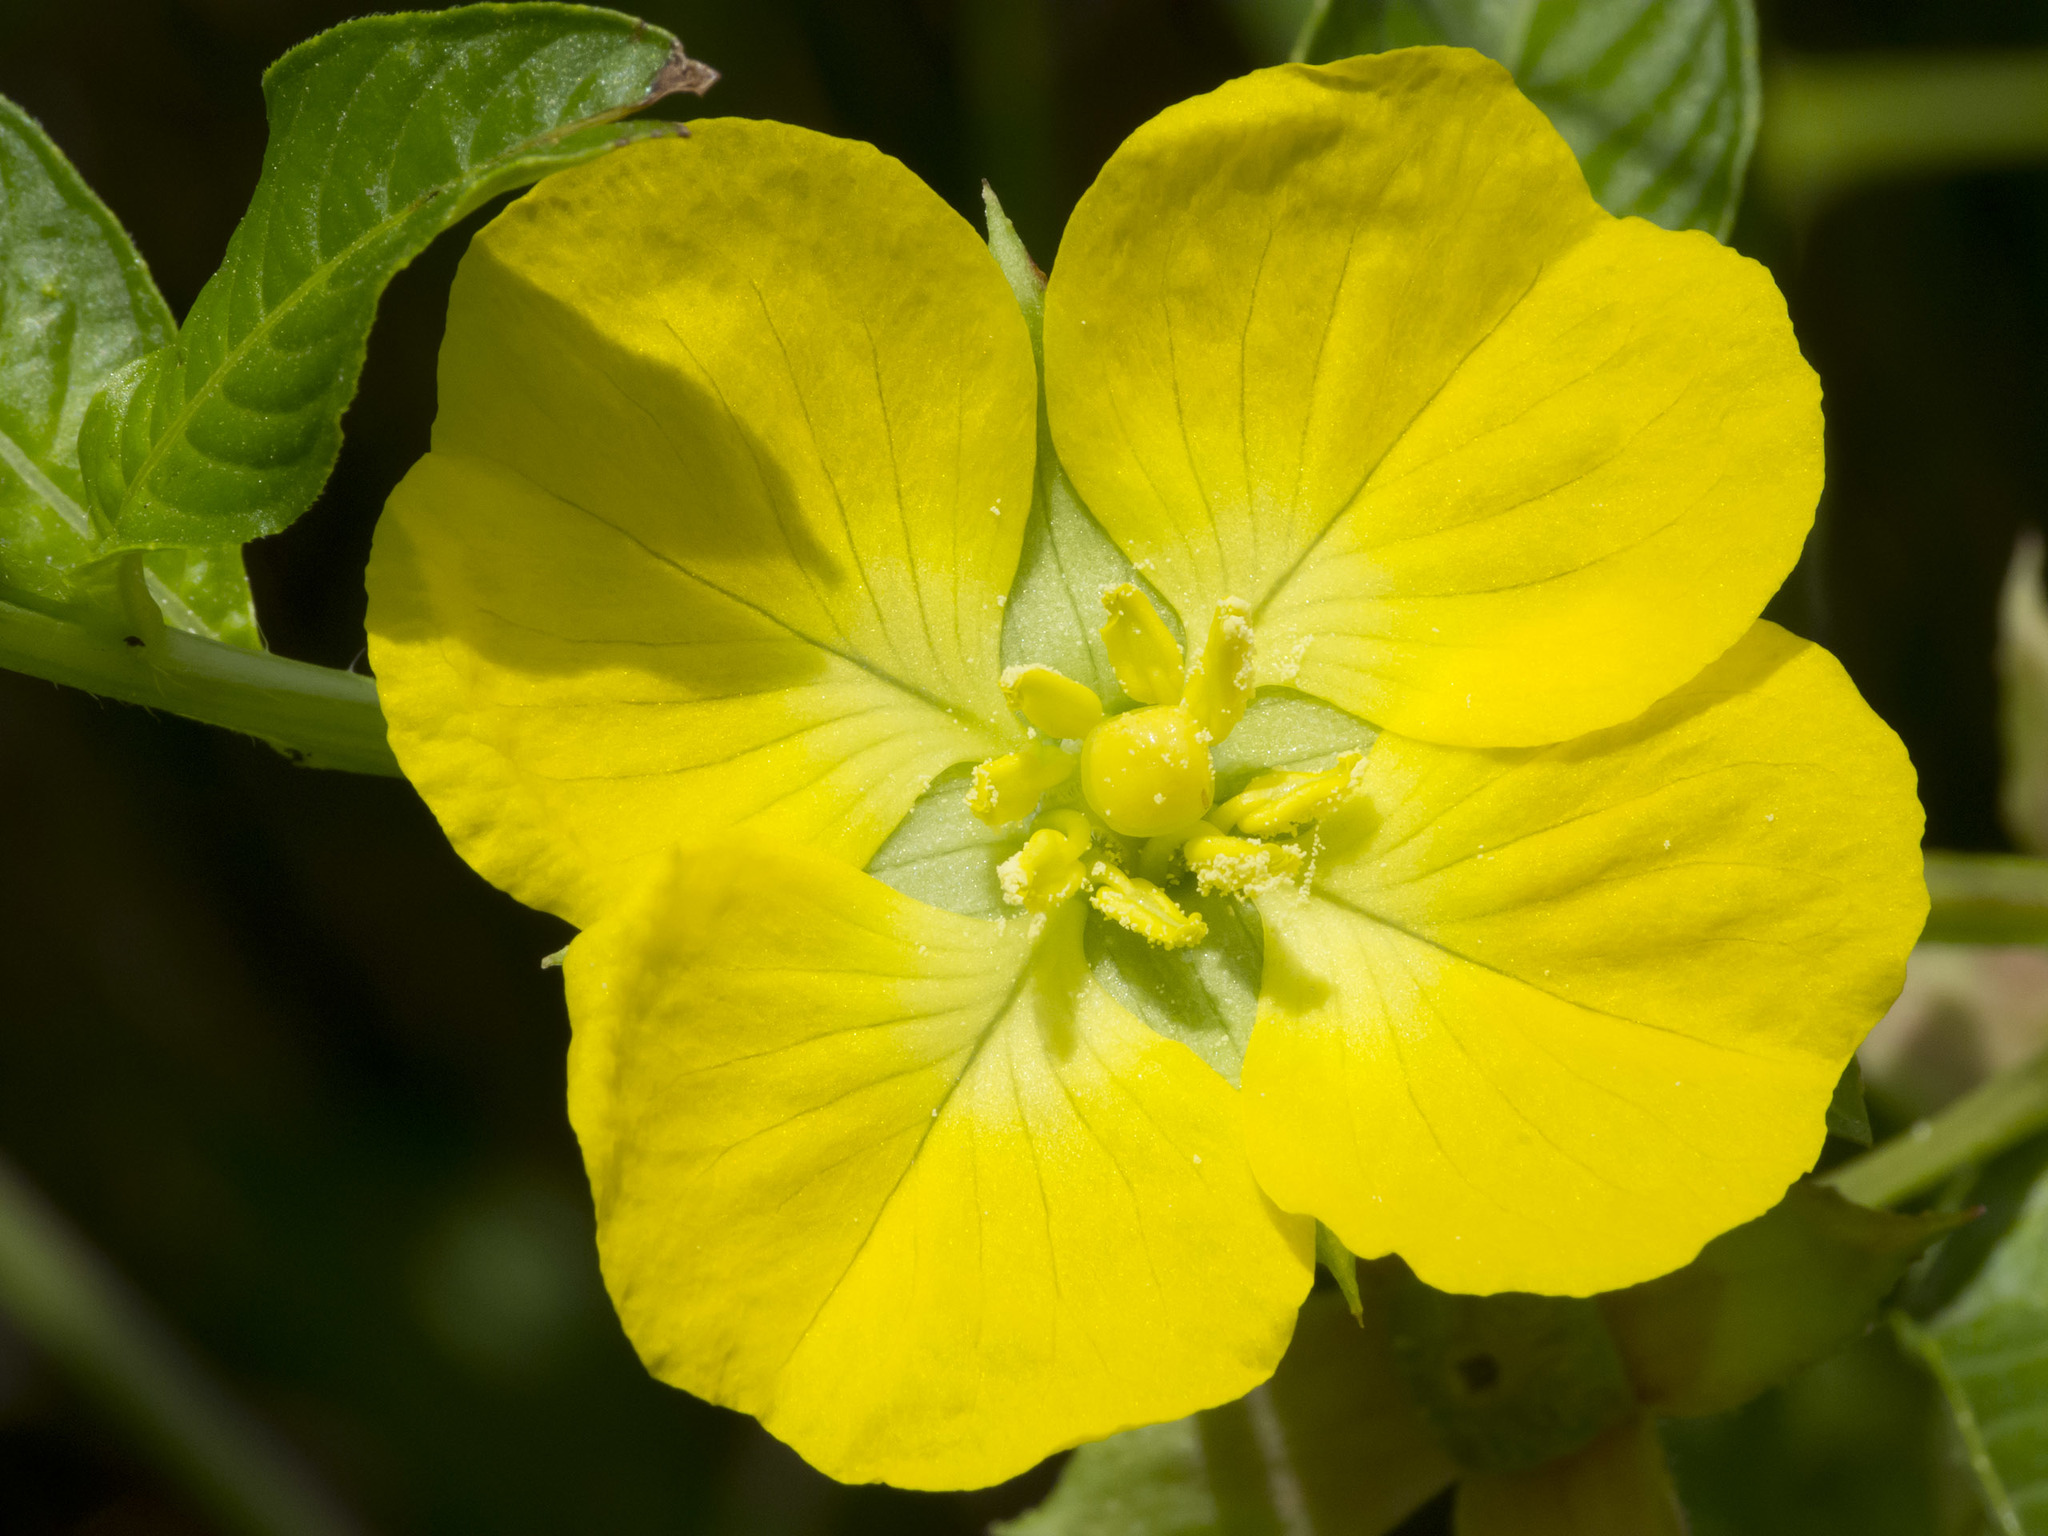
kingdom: Plantae
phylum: Tracheophyta
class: Magnoliopsida
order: Myrtales
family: Onagraceae
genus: Ludwigia
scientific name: Ludwigia peruviana
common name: Peruvian primrose-willow
